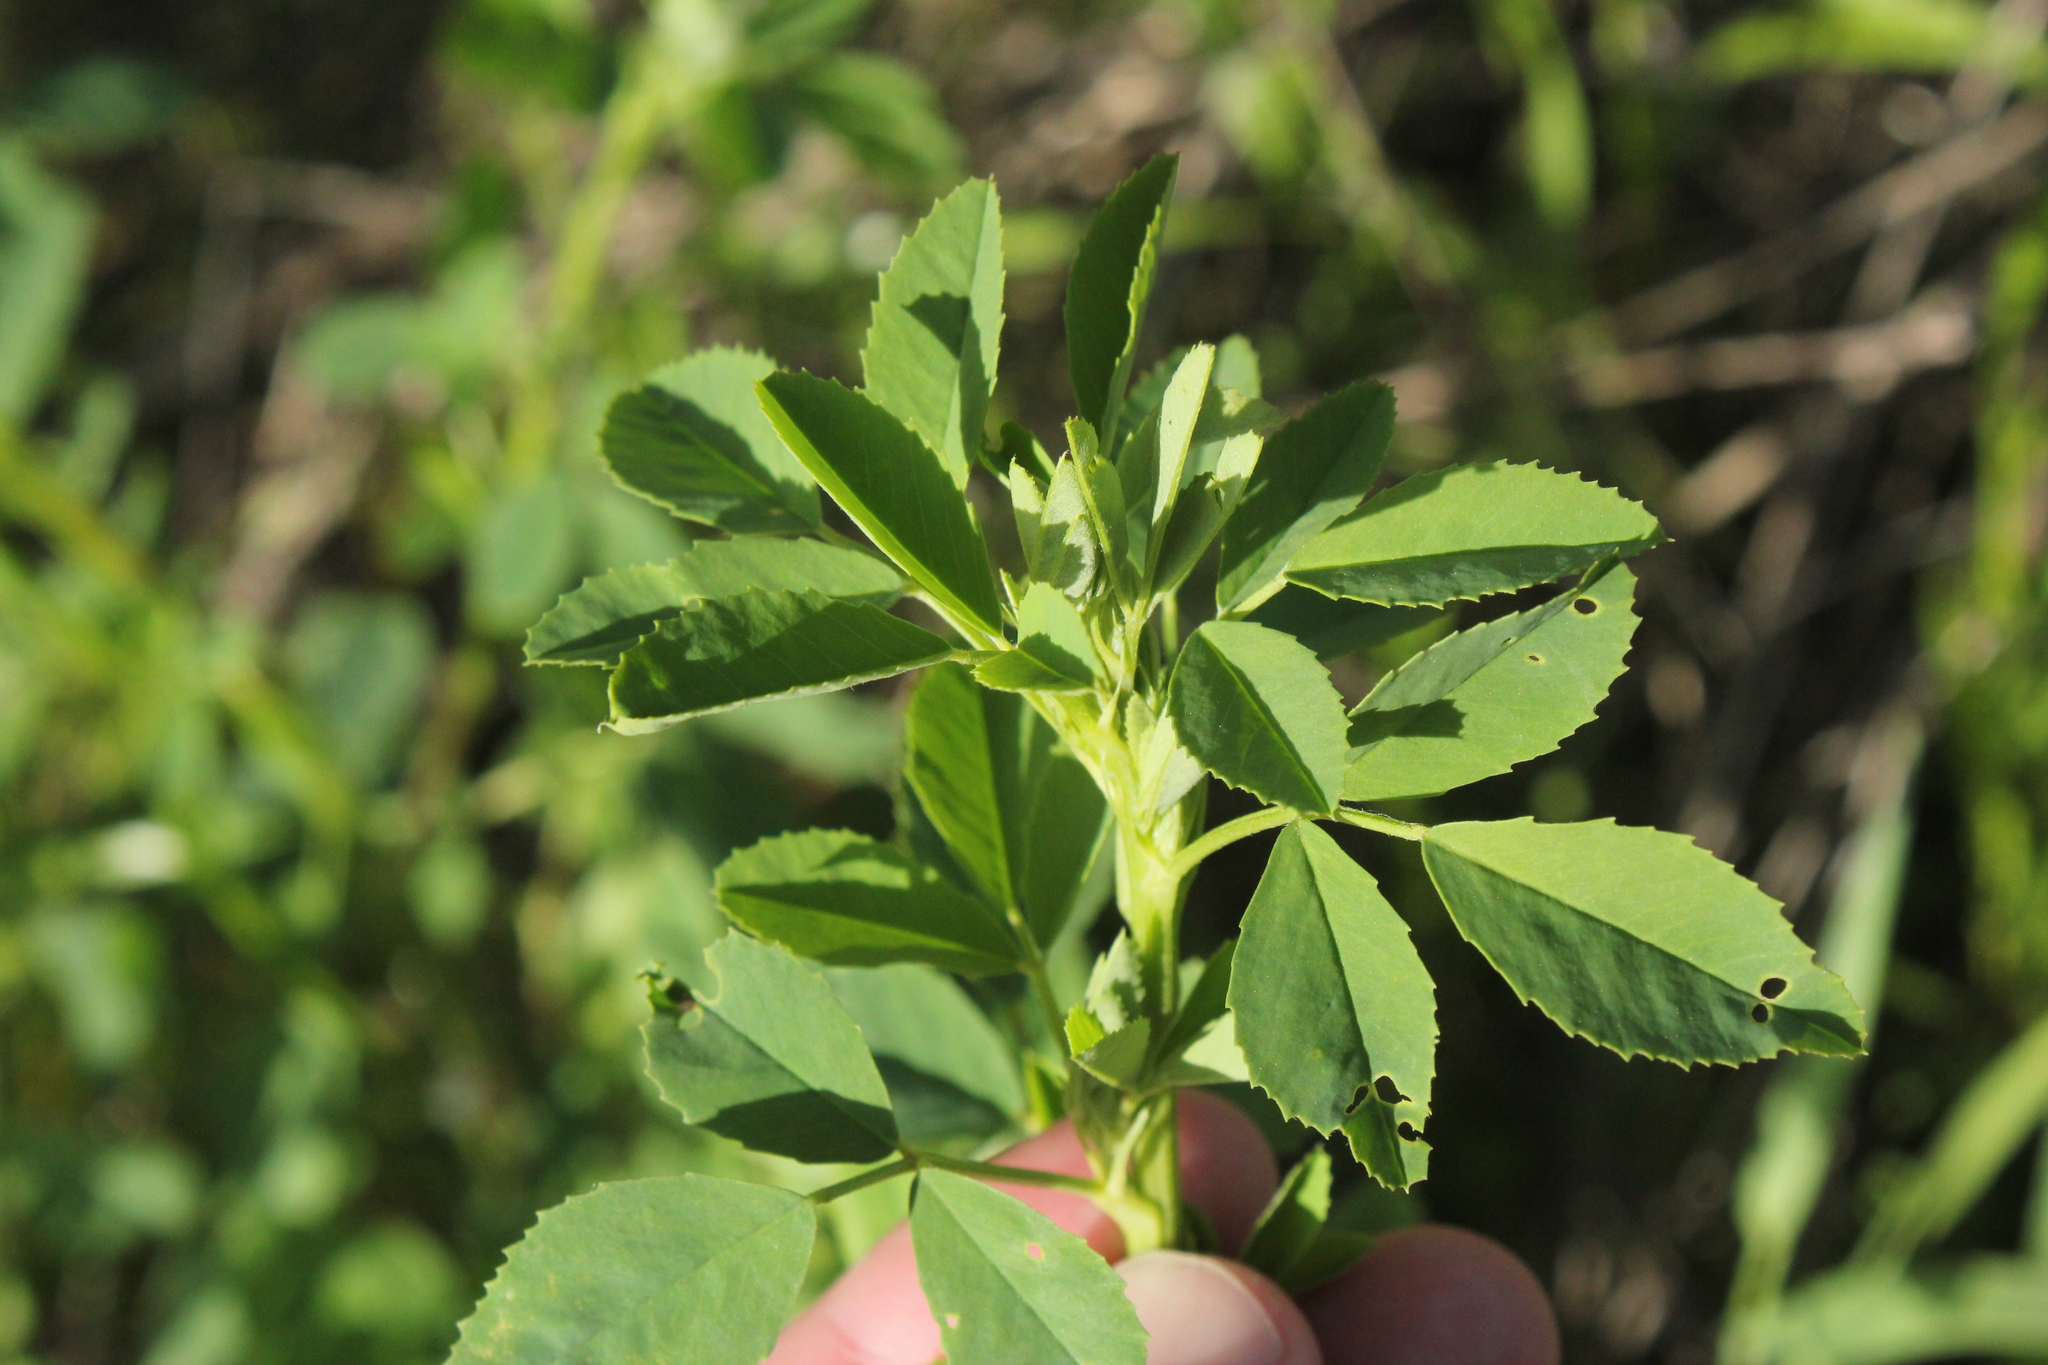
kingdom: Plantae
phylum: Tracheophyta
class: Magnoliopsida
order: Fabales
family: Fabaceae
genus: Medicago
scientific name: Medicago sativa
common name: Alfalfa
